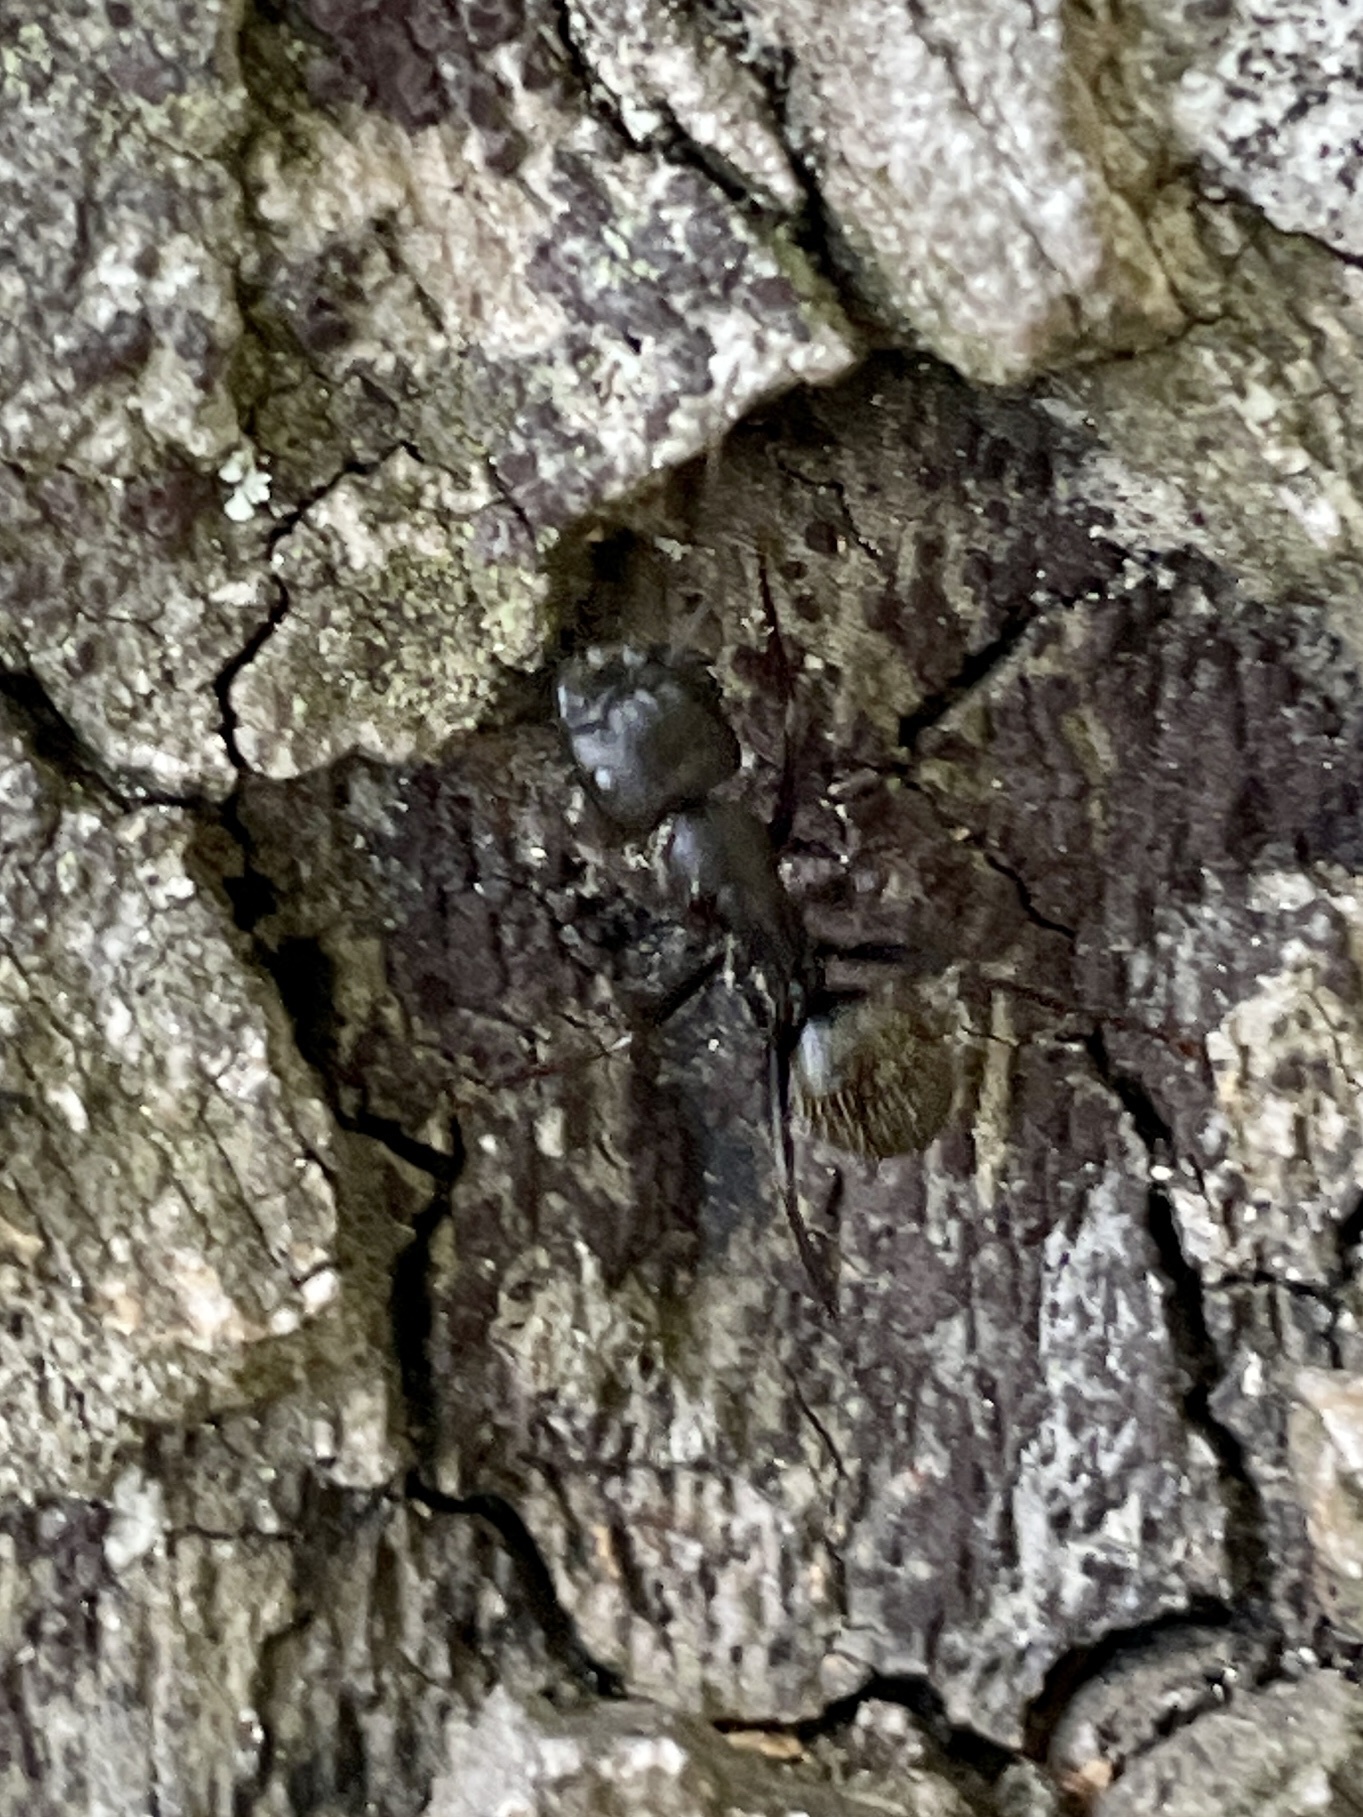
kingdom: Animalia
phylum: Arthropoda
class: Insecta
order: Hymenoptera
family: Formicidae
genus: Camponotus
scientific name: Camponotus pennsylvanicus
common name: Black carpenter ant
